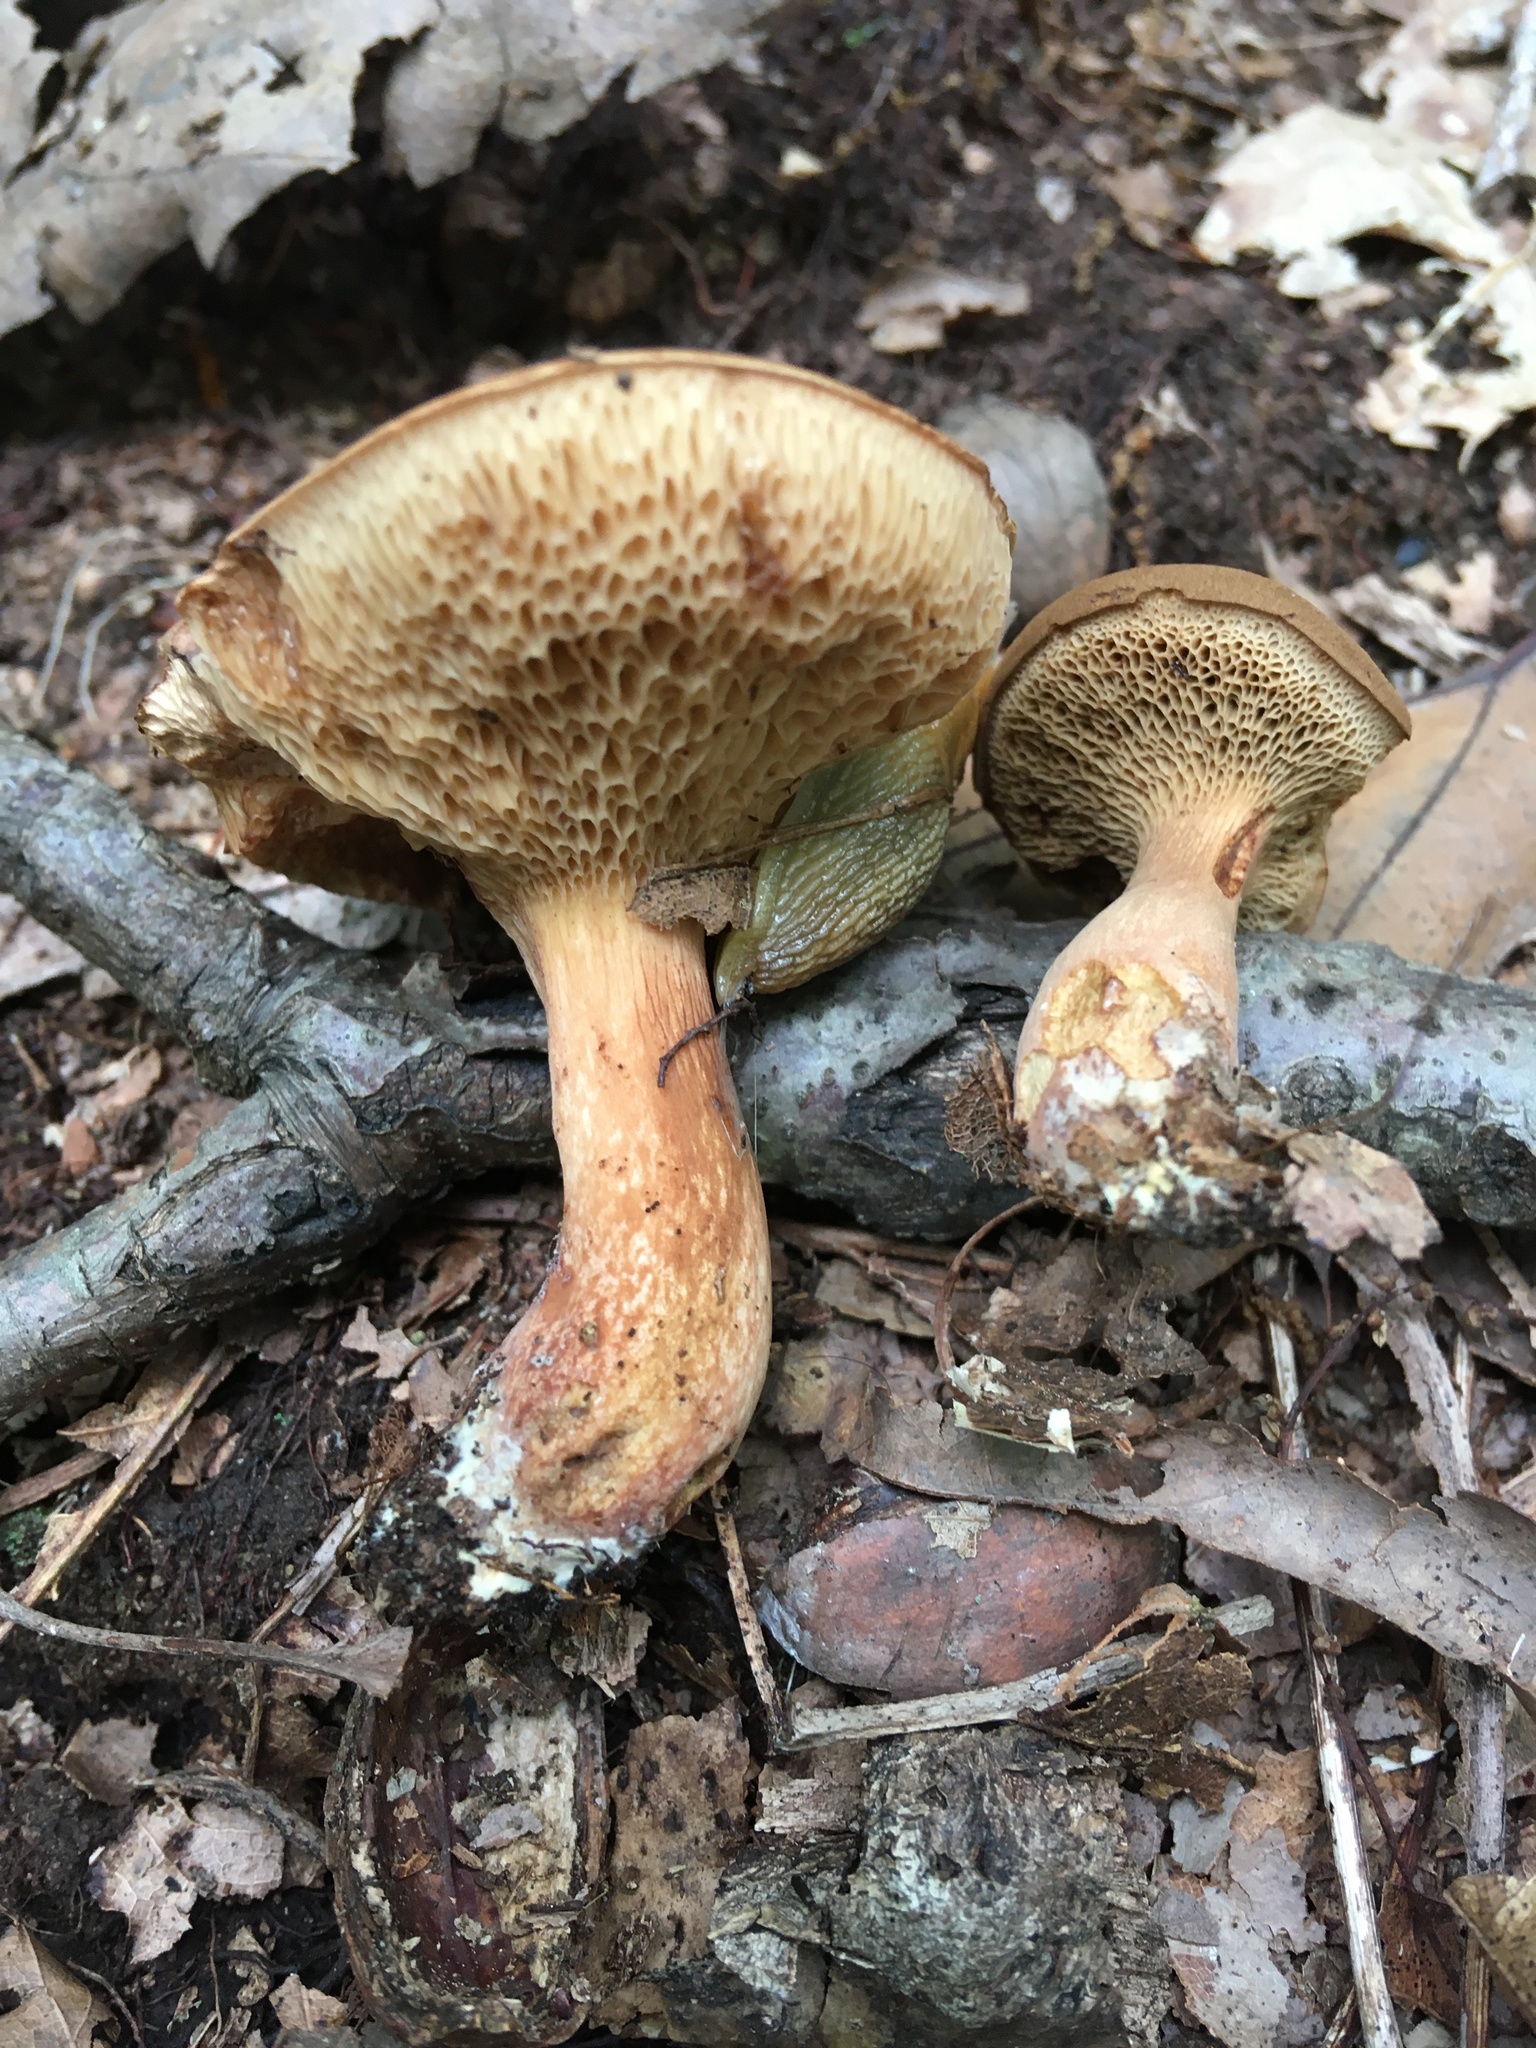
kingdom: Fungi
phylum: Basidiomycota
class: Agaricomycetes
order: Boletales
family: Boletaceae
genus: Bothia
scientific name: Bothia castanella
